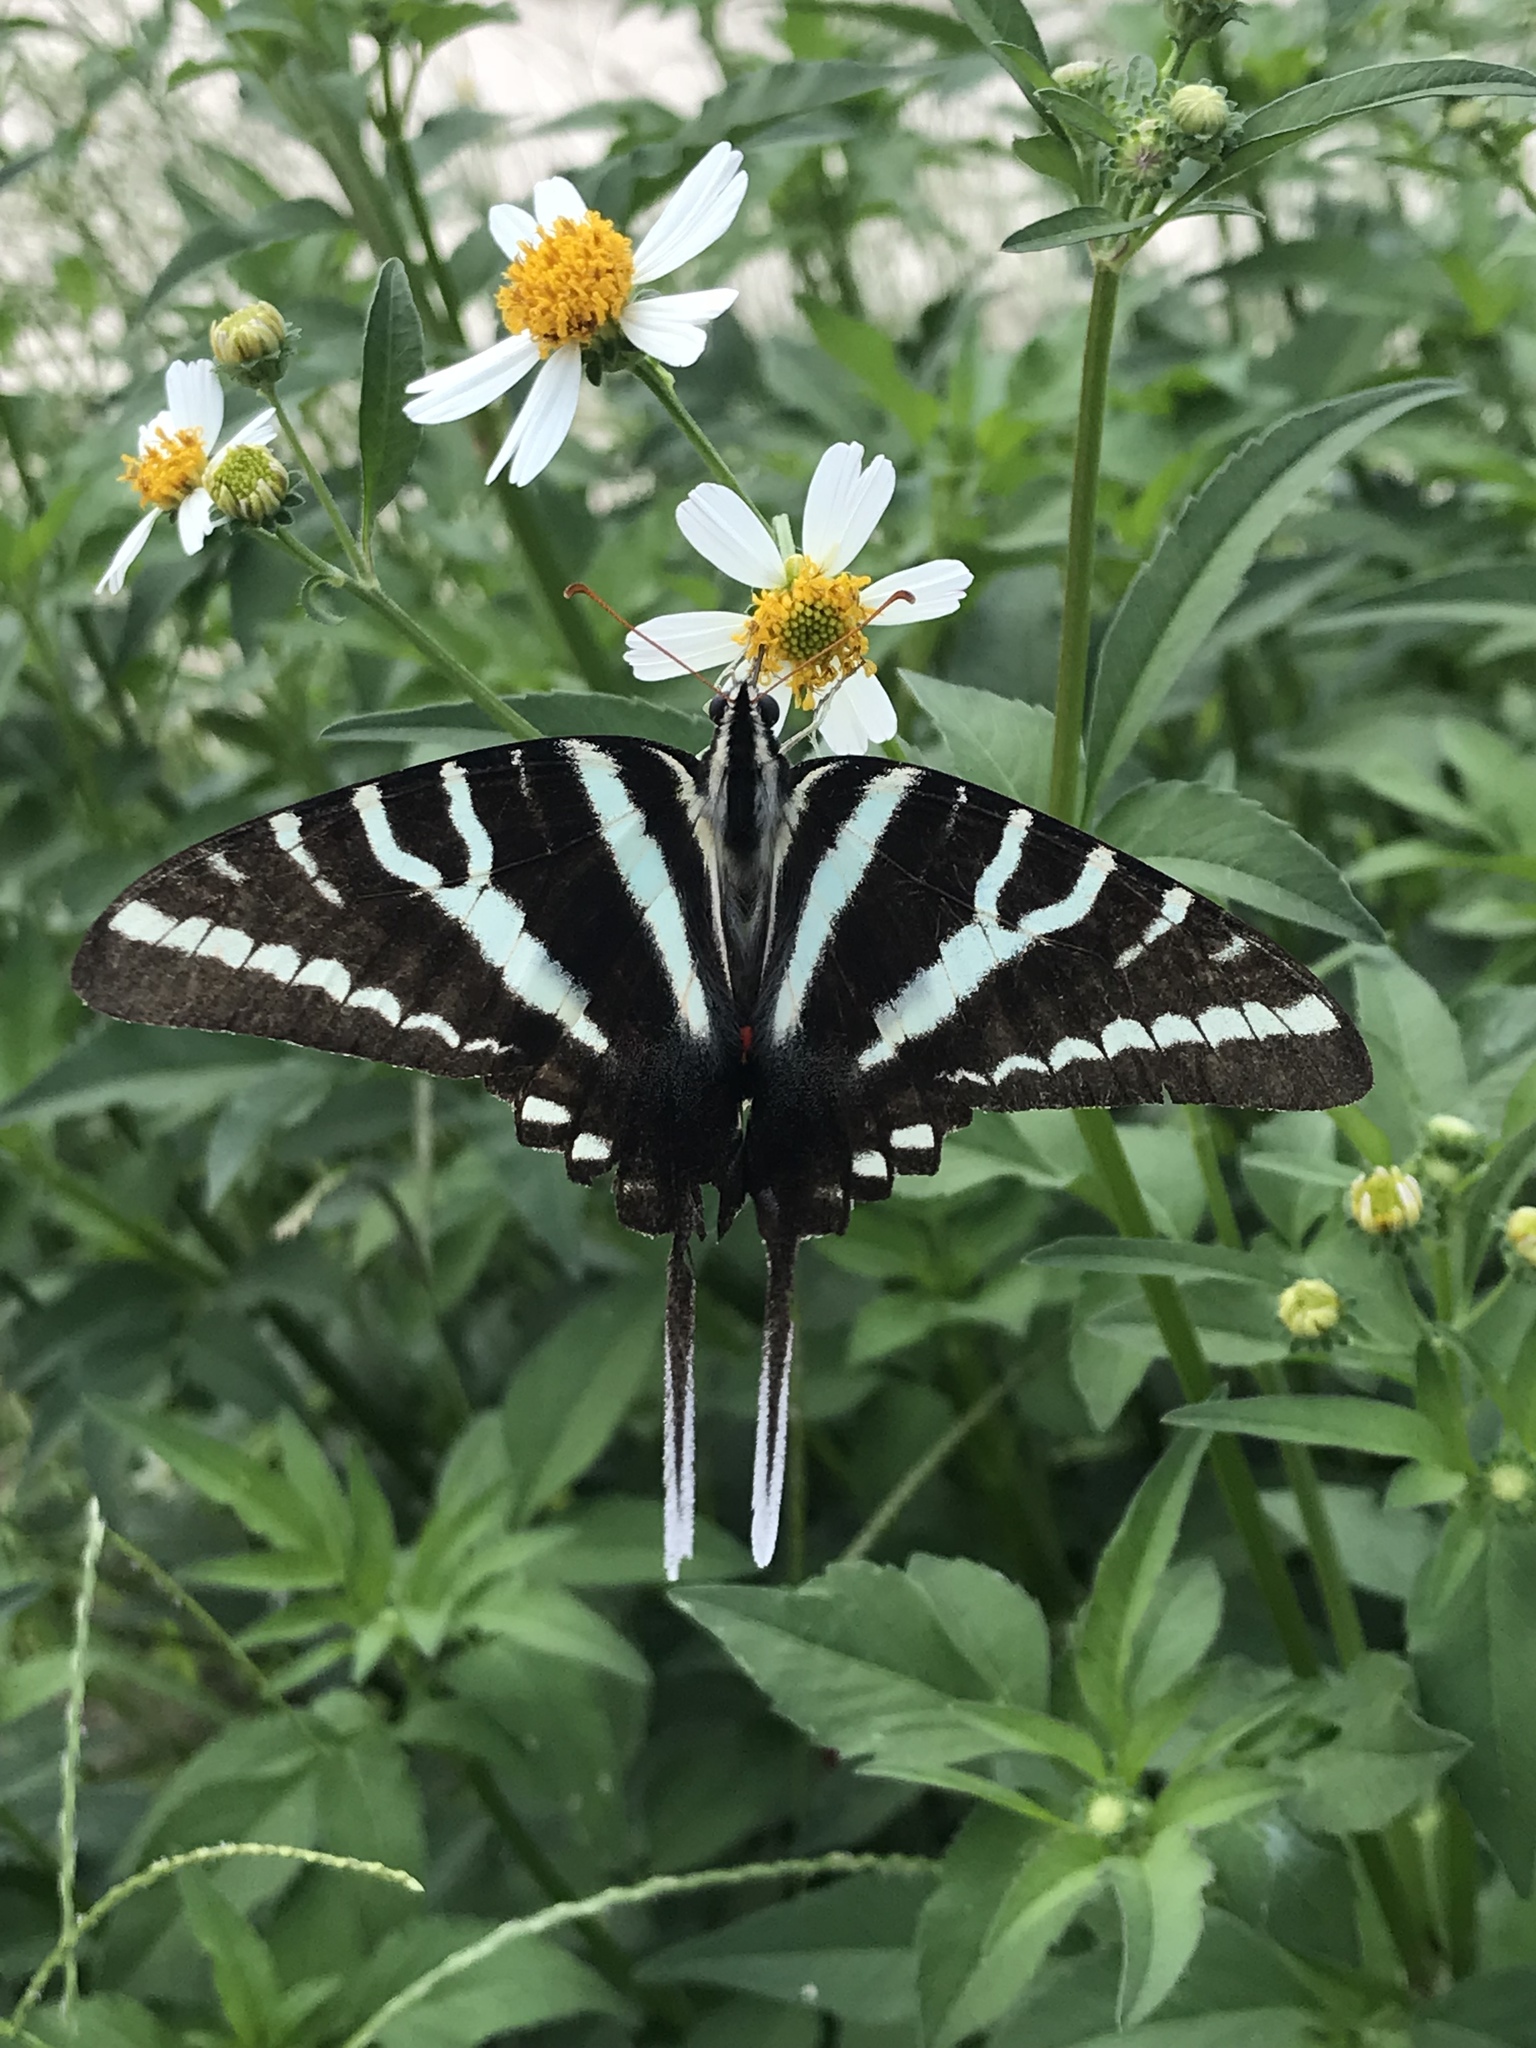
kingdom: Animalia
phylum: Arthropoda
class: Insecta
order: Lepidoptera
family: Papilionidae
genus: Protographium
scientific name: Protographium marcellus
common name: Zebra swallowtail
